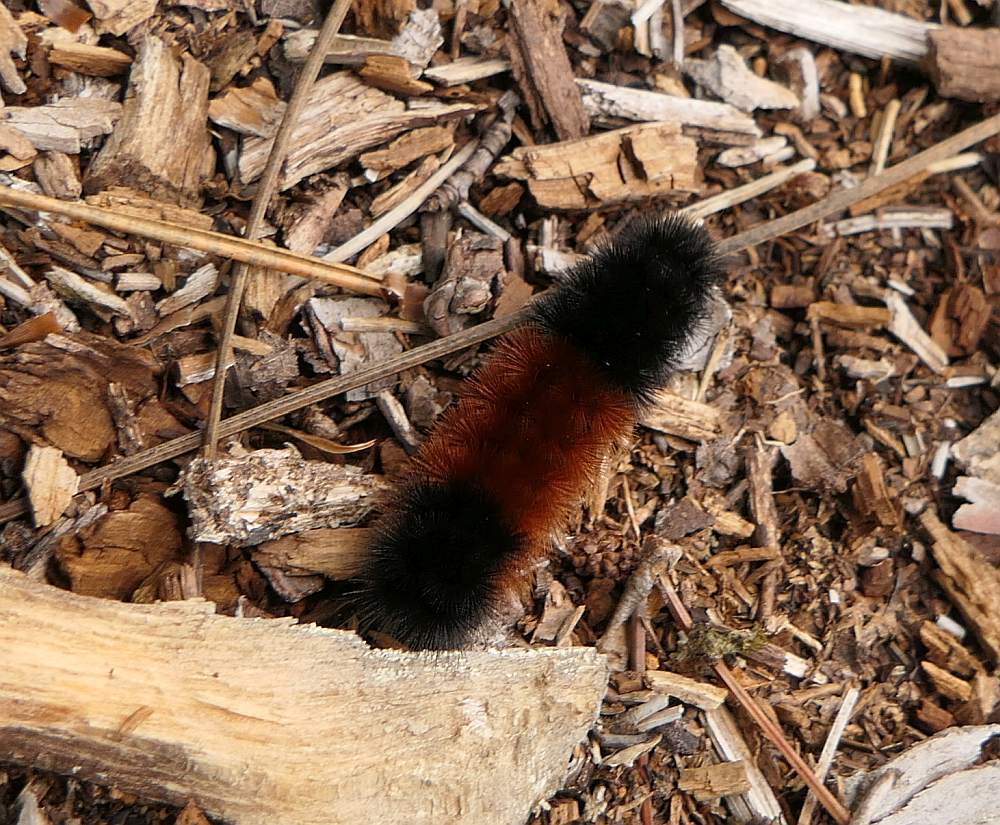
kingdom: Animalia
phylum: Arthropoda
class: Insecta
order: Lepidoptera
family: Erebidae
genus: Pyrrharctia
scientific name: Pyrrharctia isabella
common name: Isabella tiger moth
